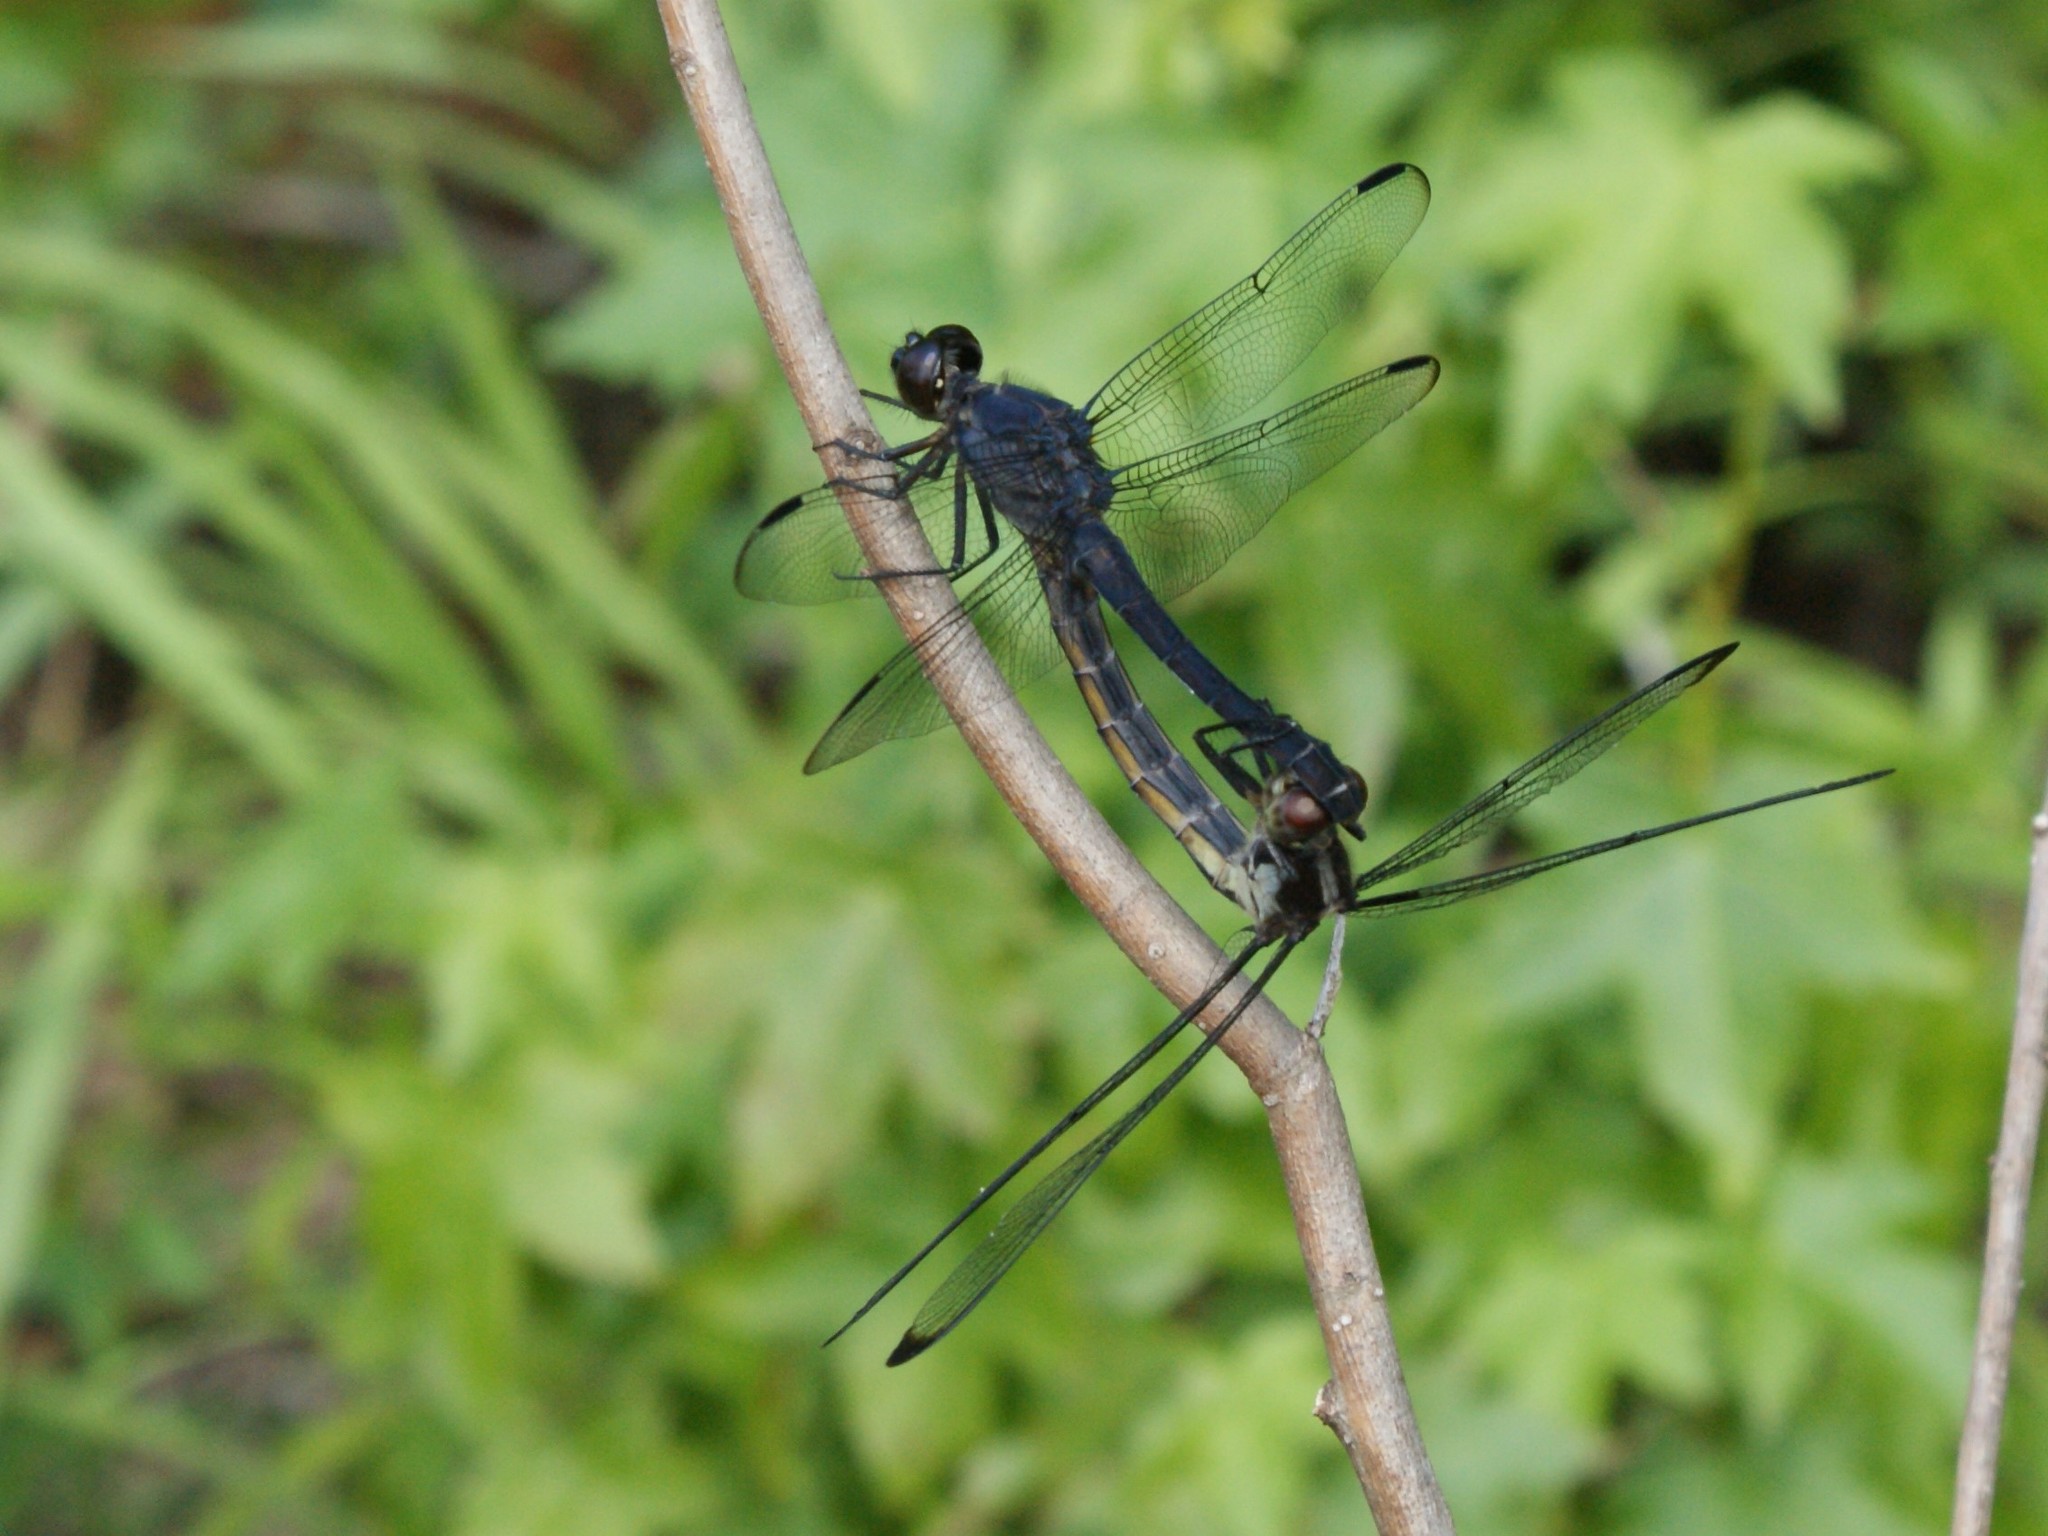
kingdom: Animalia
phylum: Arthropoda
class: Insecta
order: Odonata
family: Libellulidae
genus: Libellula
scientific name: Libellula incesta
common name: Slaty skimmer
